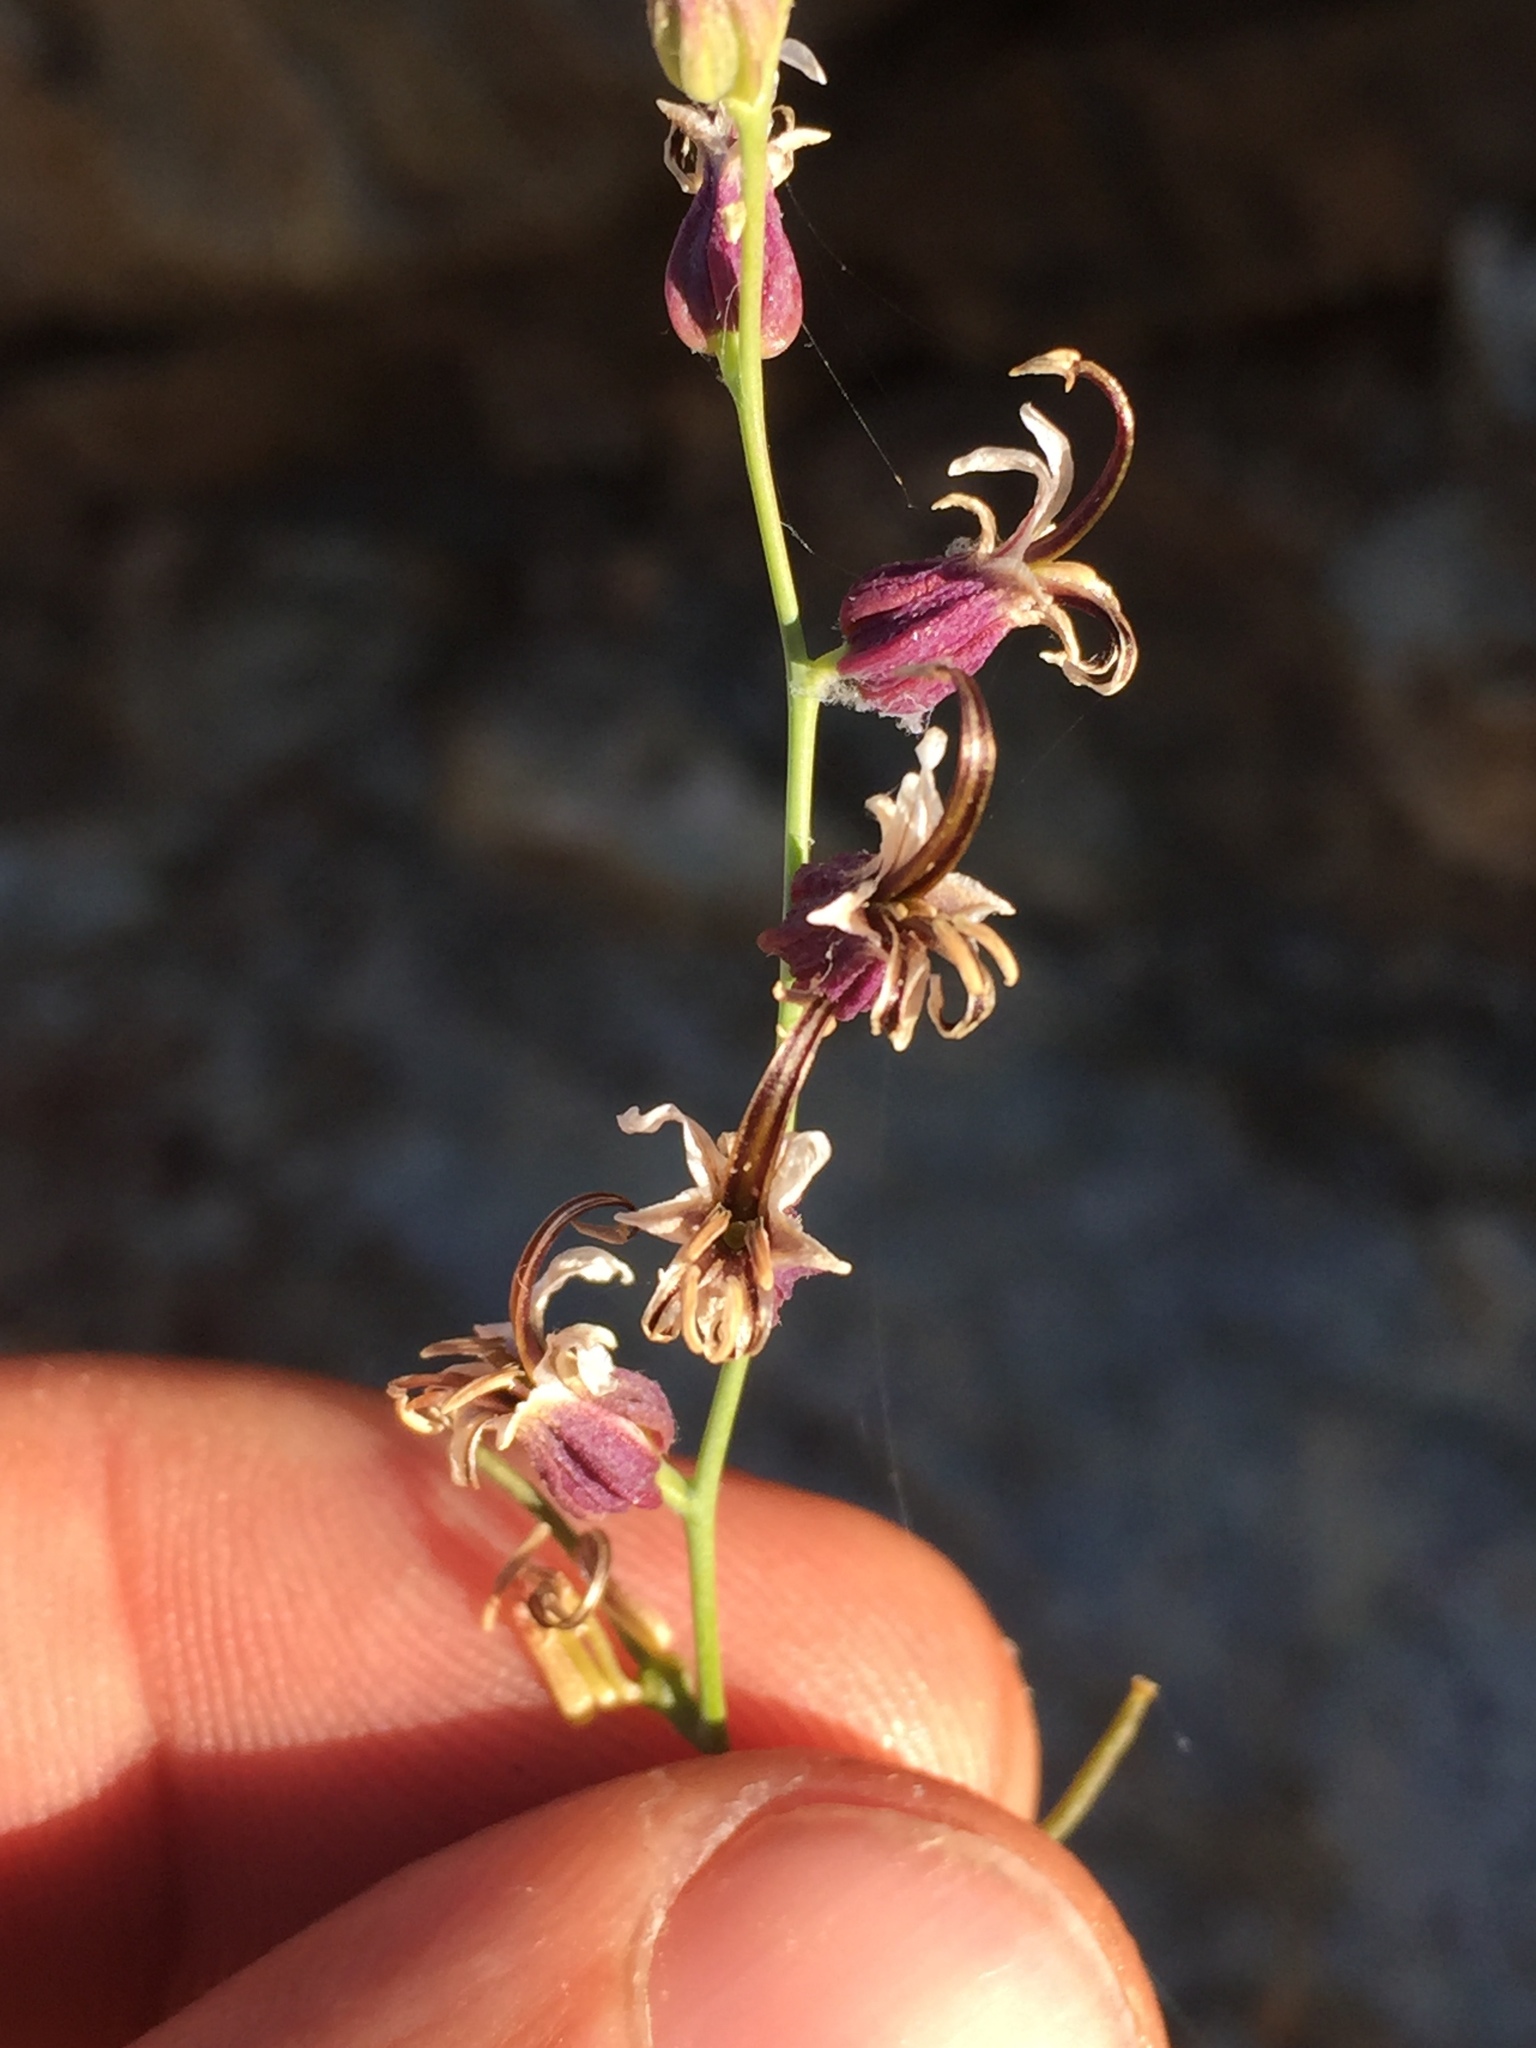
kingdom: Plantae
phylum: Tracheophyta
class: Magnoliopsida
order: Brassicales
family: Brassicaceae
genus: Streptanthus
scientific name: Streptanthus breweri
